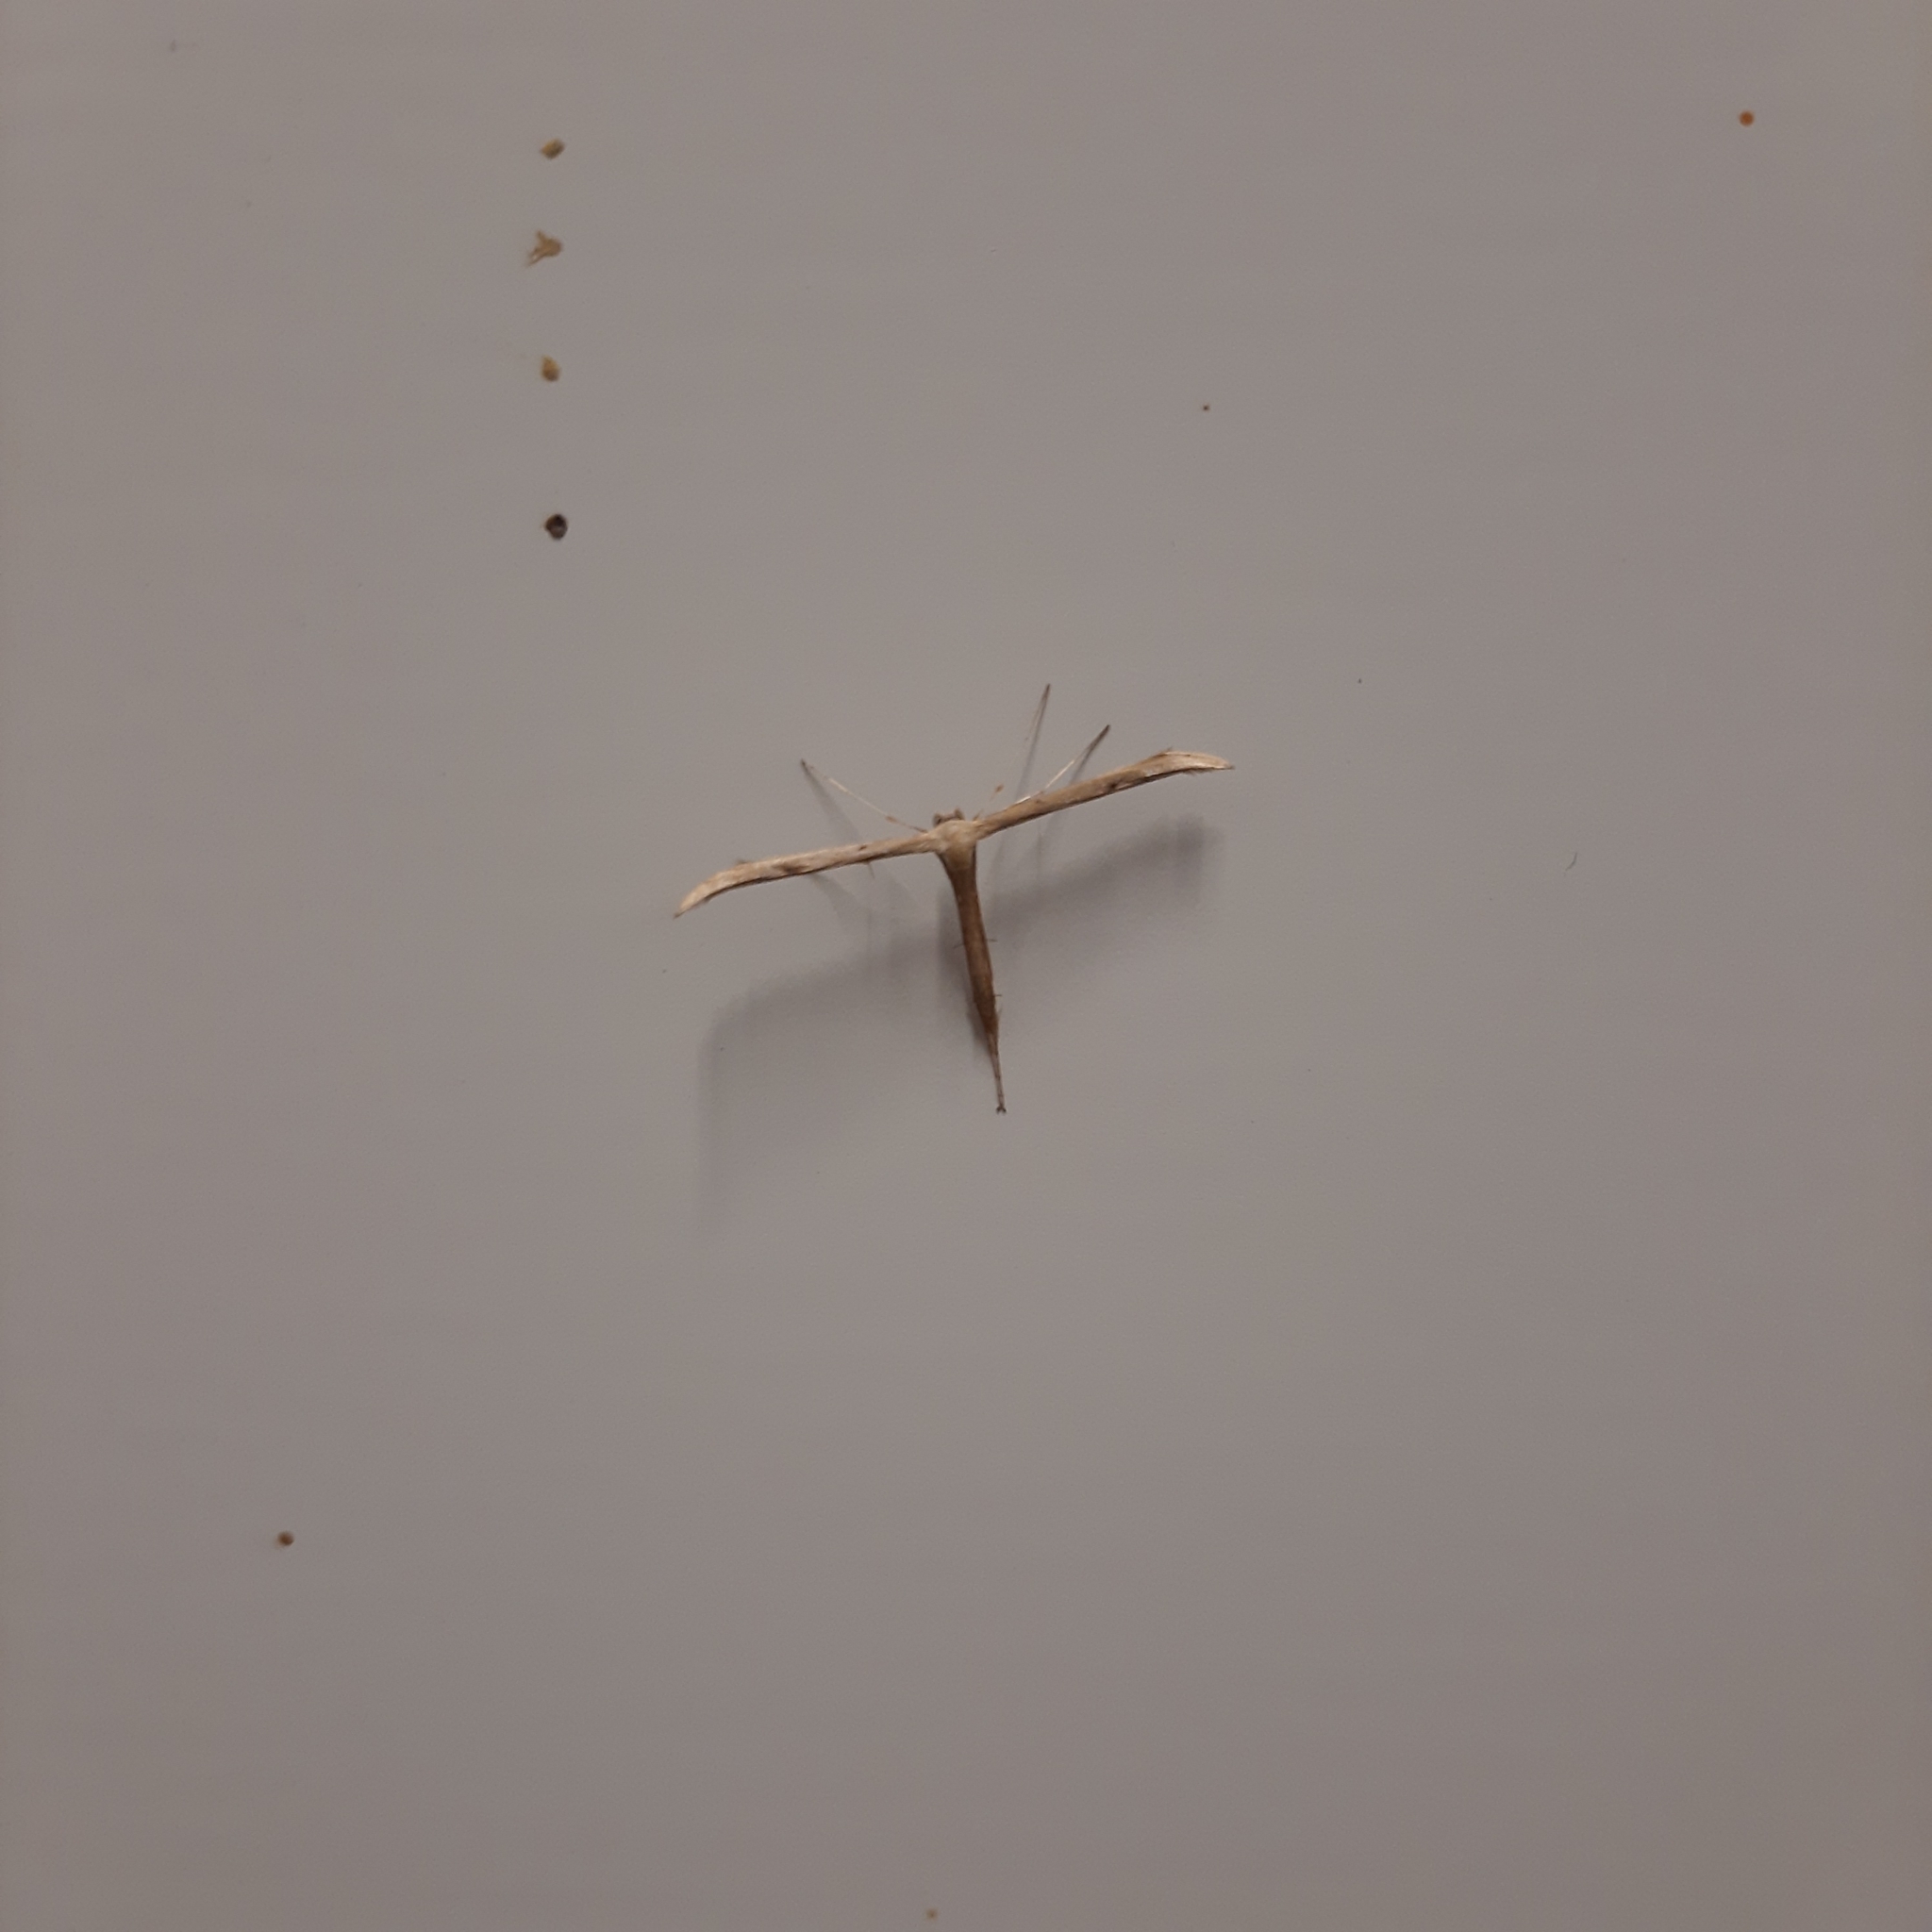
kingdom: Animalia
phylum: Arthropoda
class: Insecta
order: Lepidoptera
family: Pterophoridae
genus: Emmelina
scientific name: Emmelina
